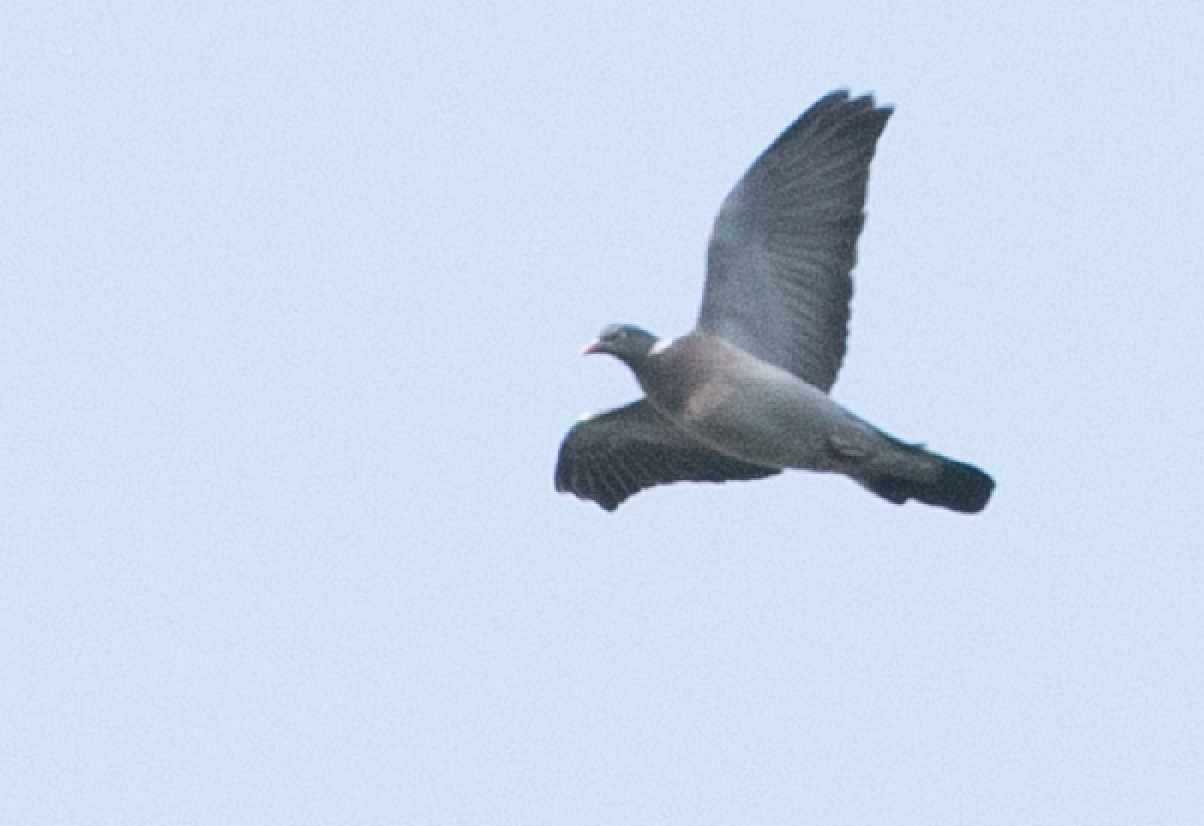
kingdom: Animalia
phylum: Chordata
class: Aves
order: Columbiformes
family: Columbidae
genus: Columba
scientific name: Columba palumbus
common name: Common wood pigeon
